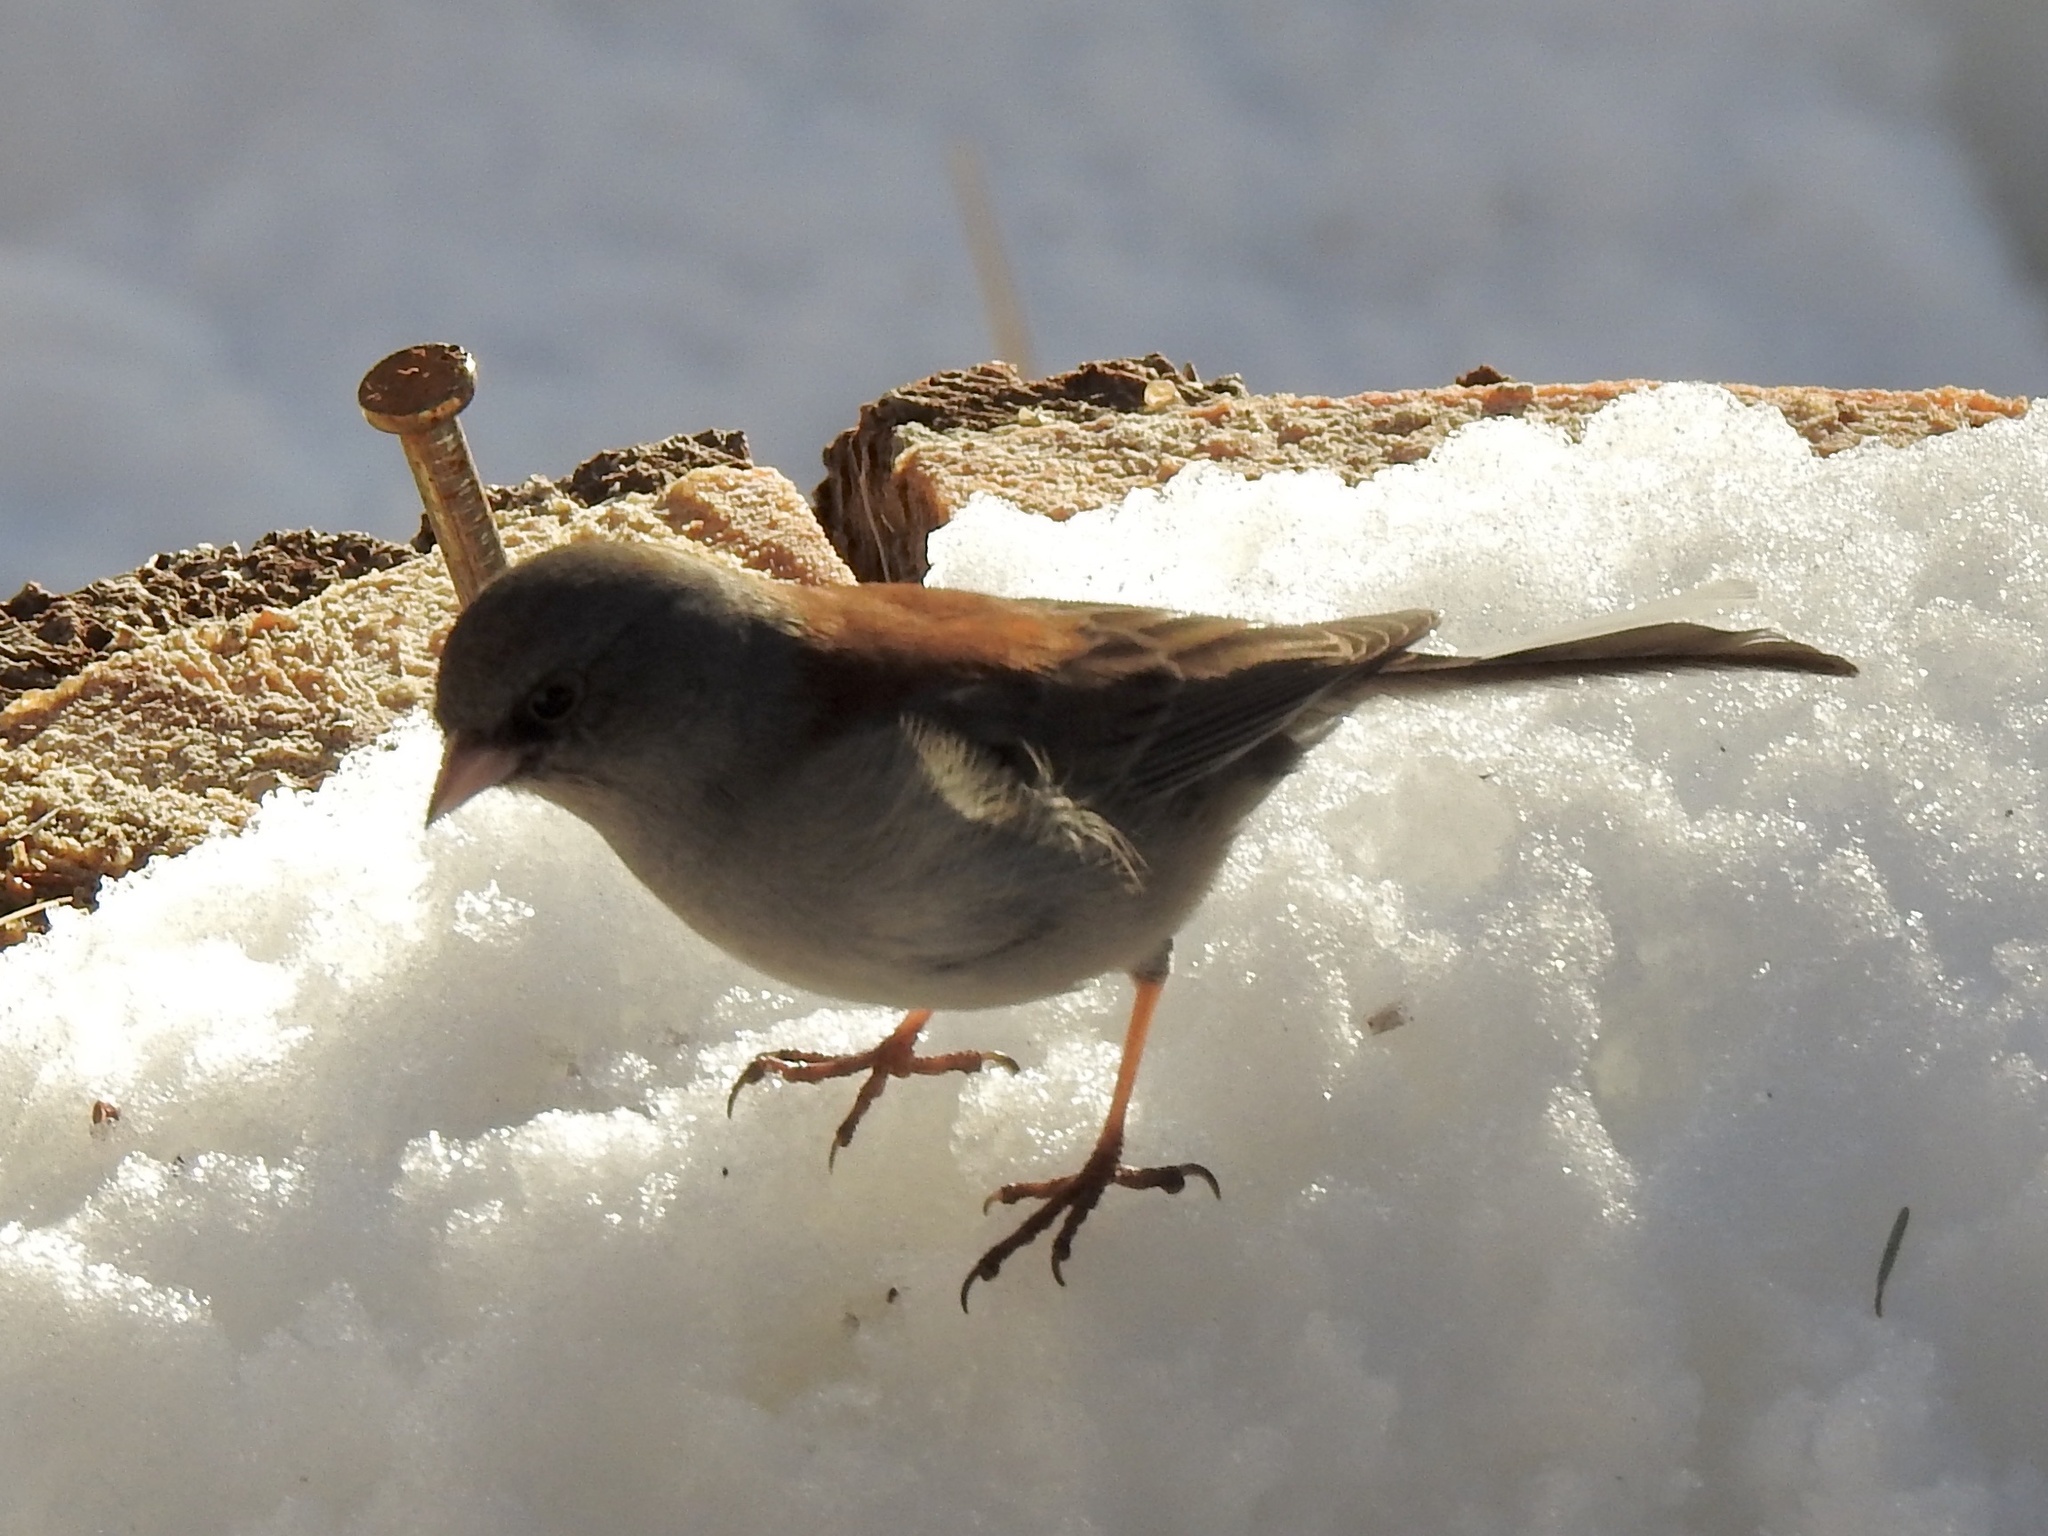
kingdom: Animalia
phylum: Chordata
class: Aves
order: Passeriformes
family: Passerellidae
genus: Junco
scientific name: Junco hyemalis
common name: Dark-eyed junco
